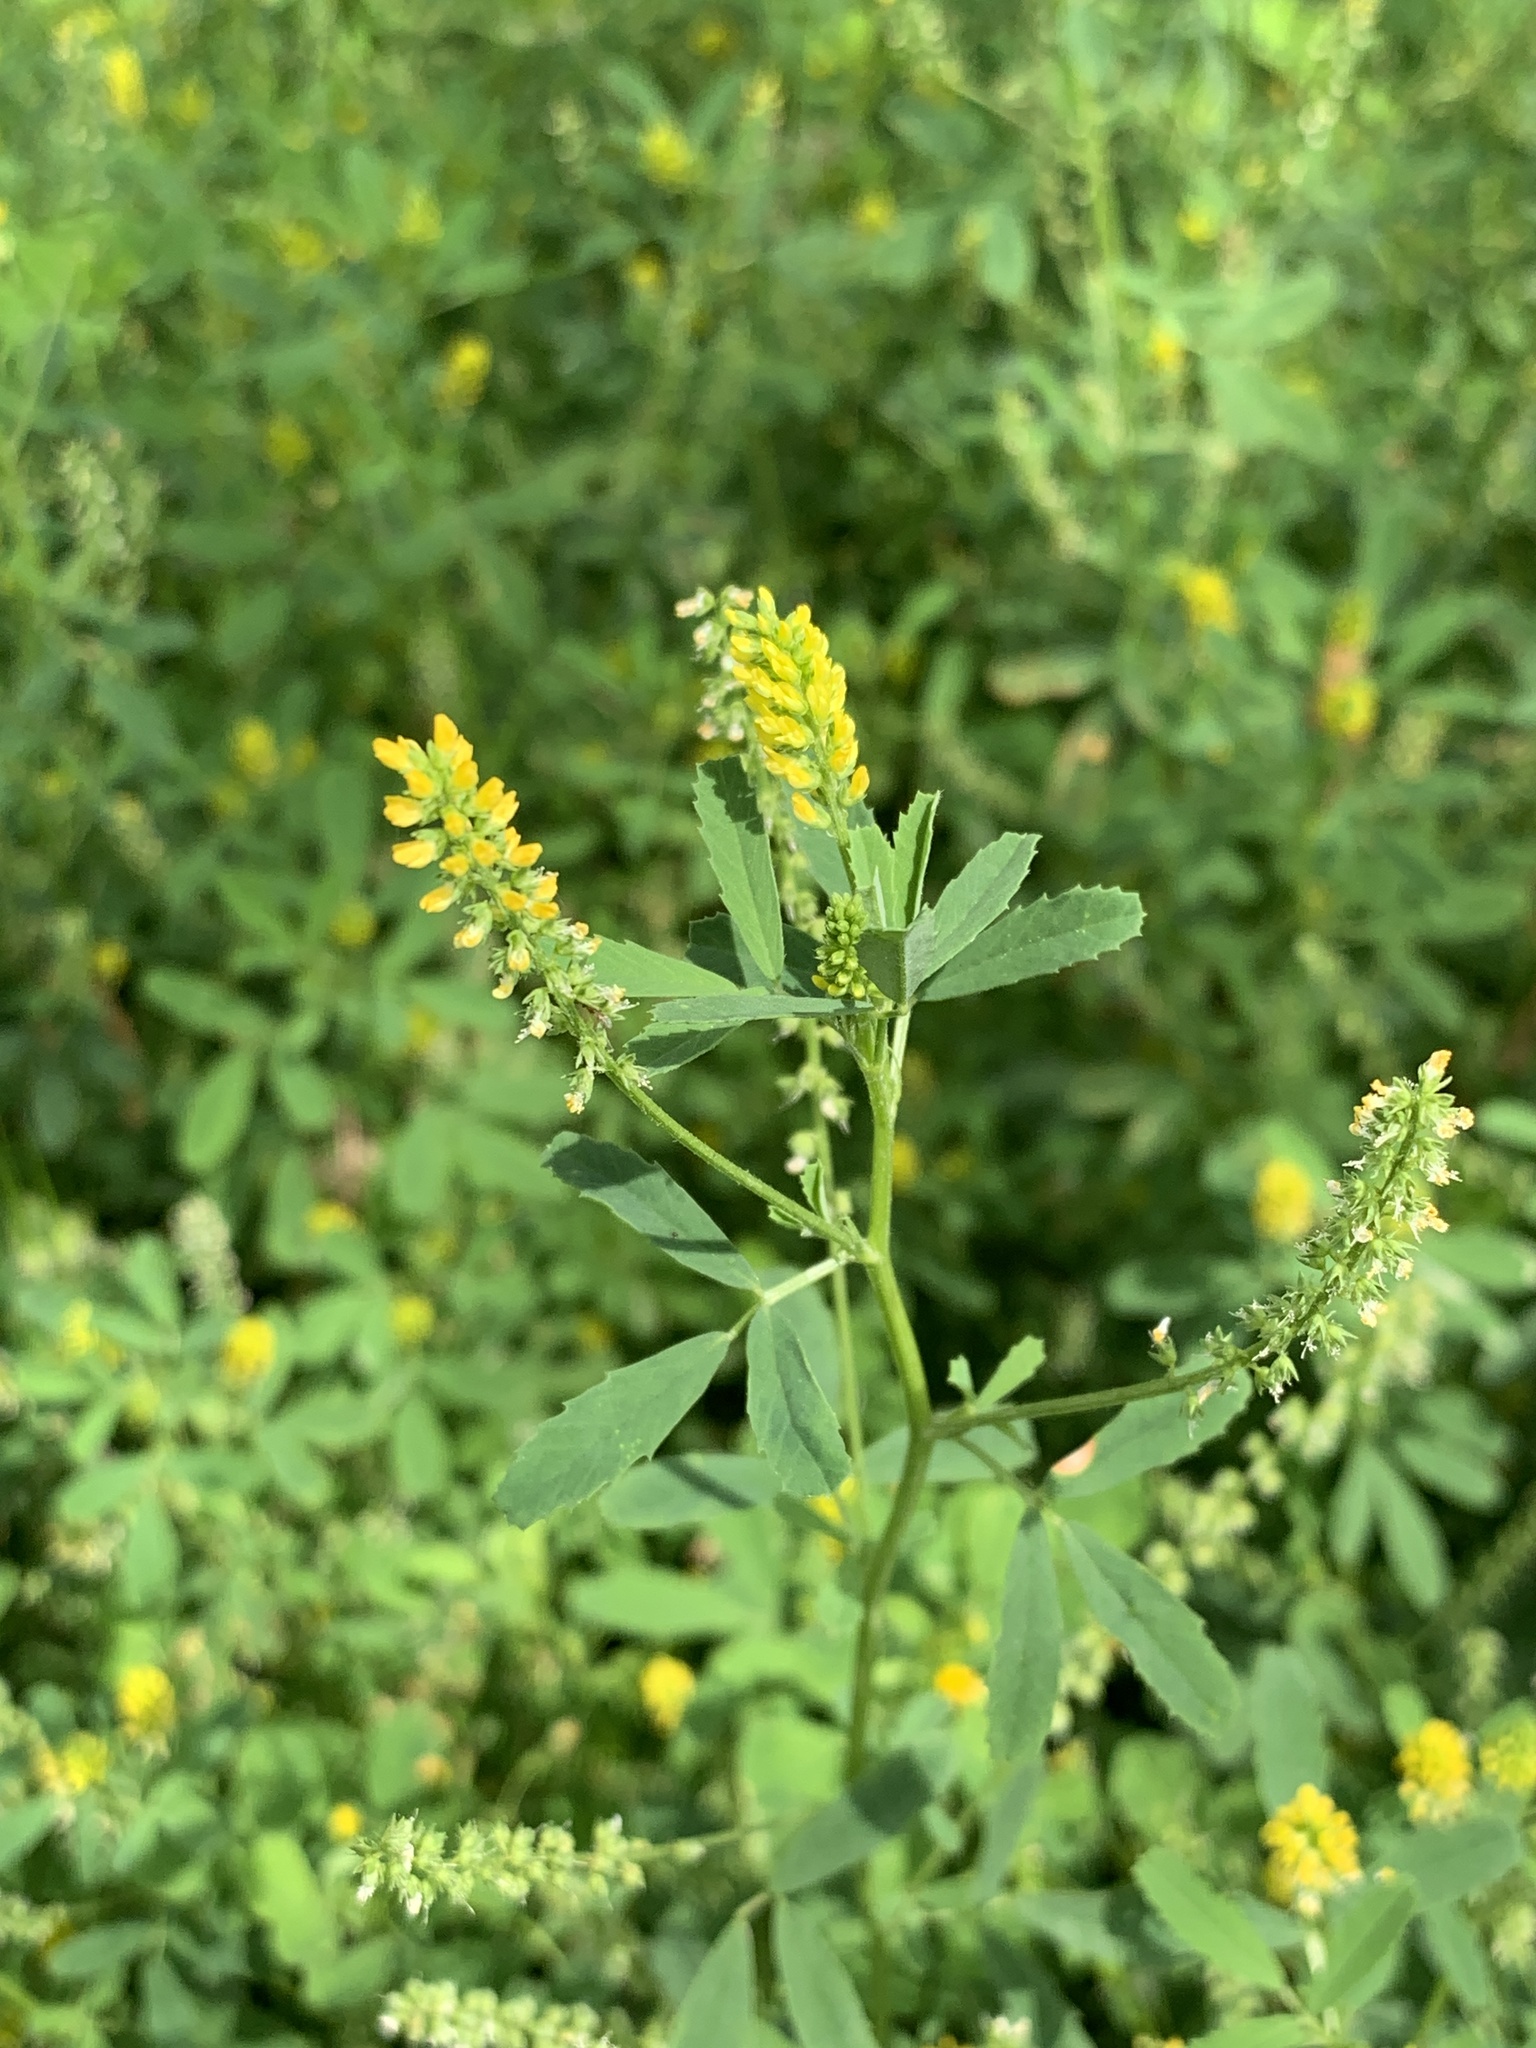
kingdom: Plantae
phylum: Tracheophyta
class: Magnoliopsida
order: Fabales
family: Fabaceae
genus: Melilotus
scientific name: Melilotus indicus
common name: Small melilot
